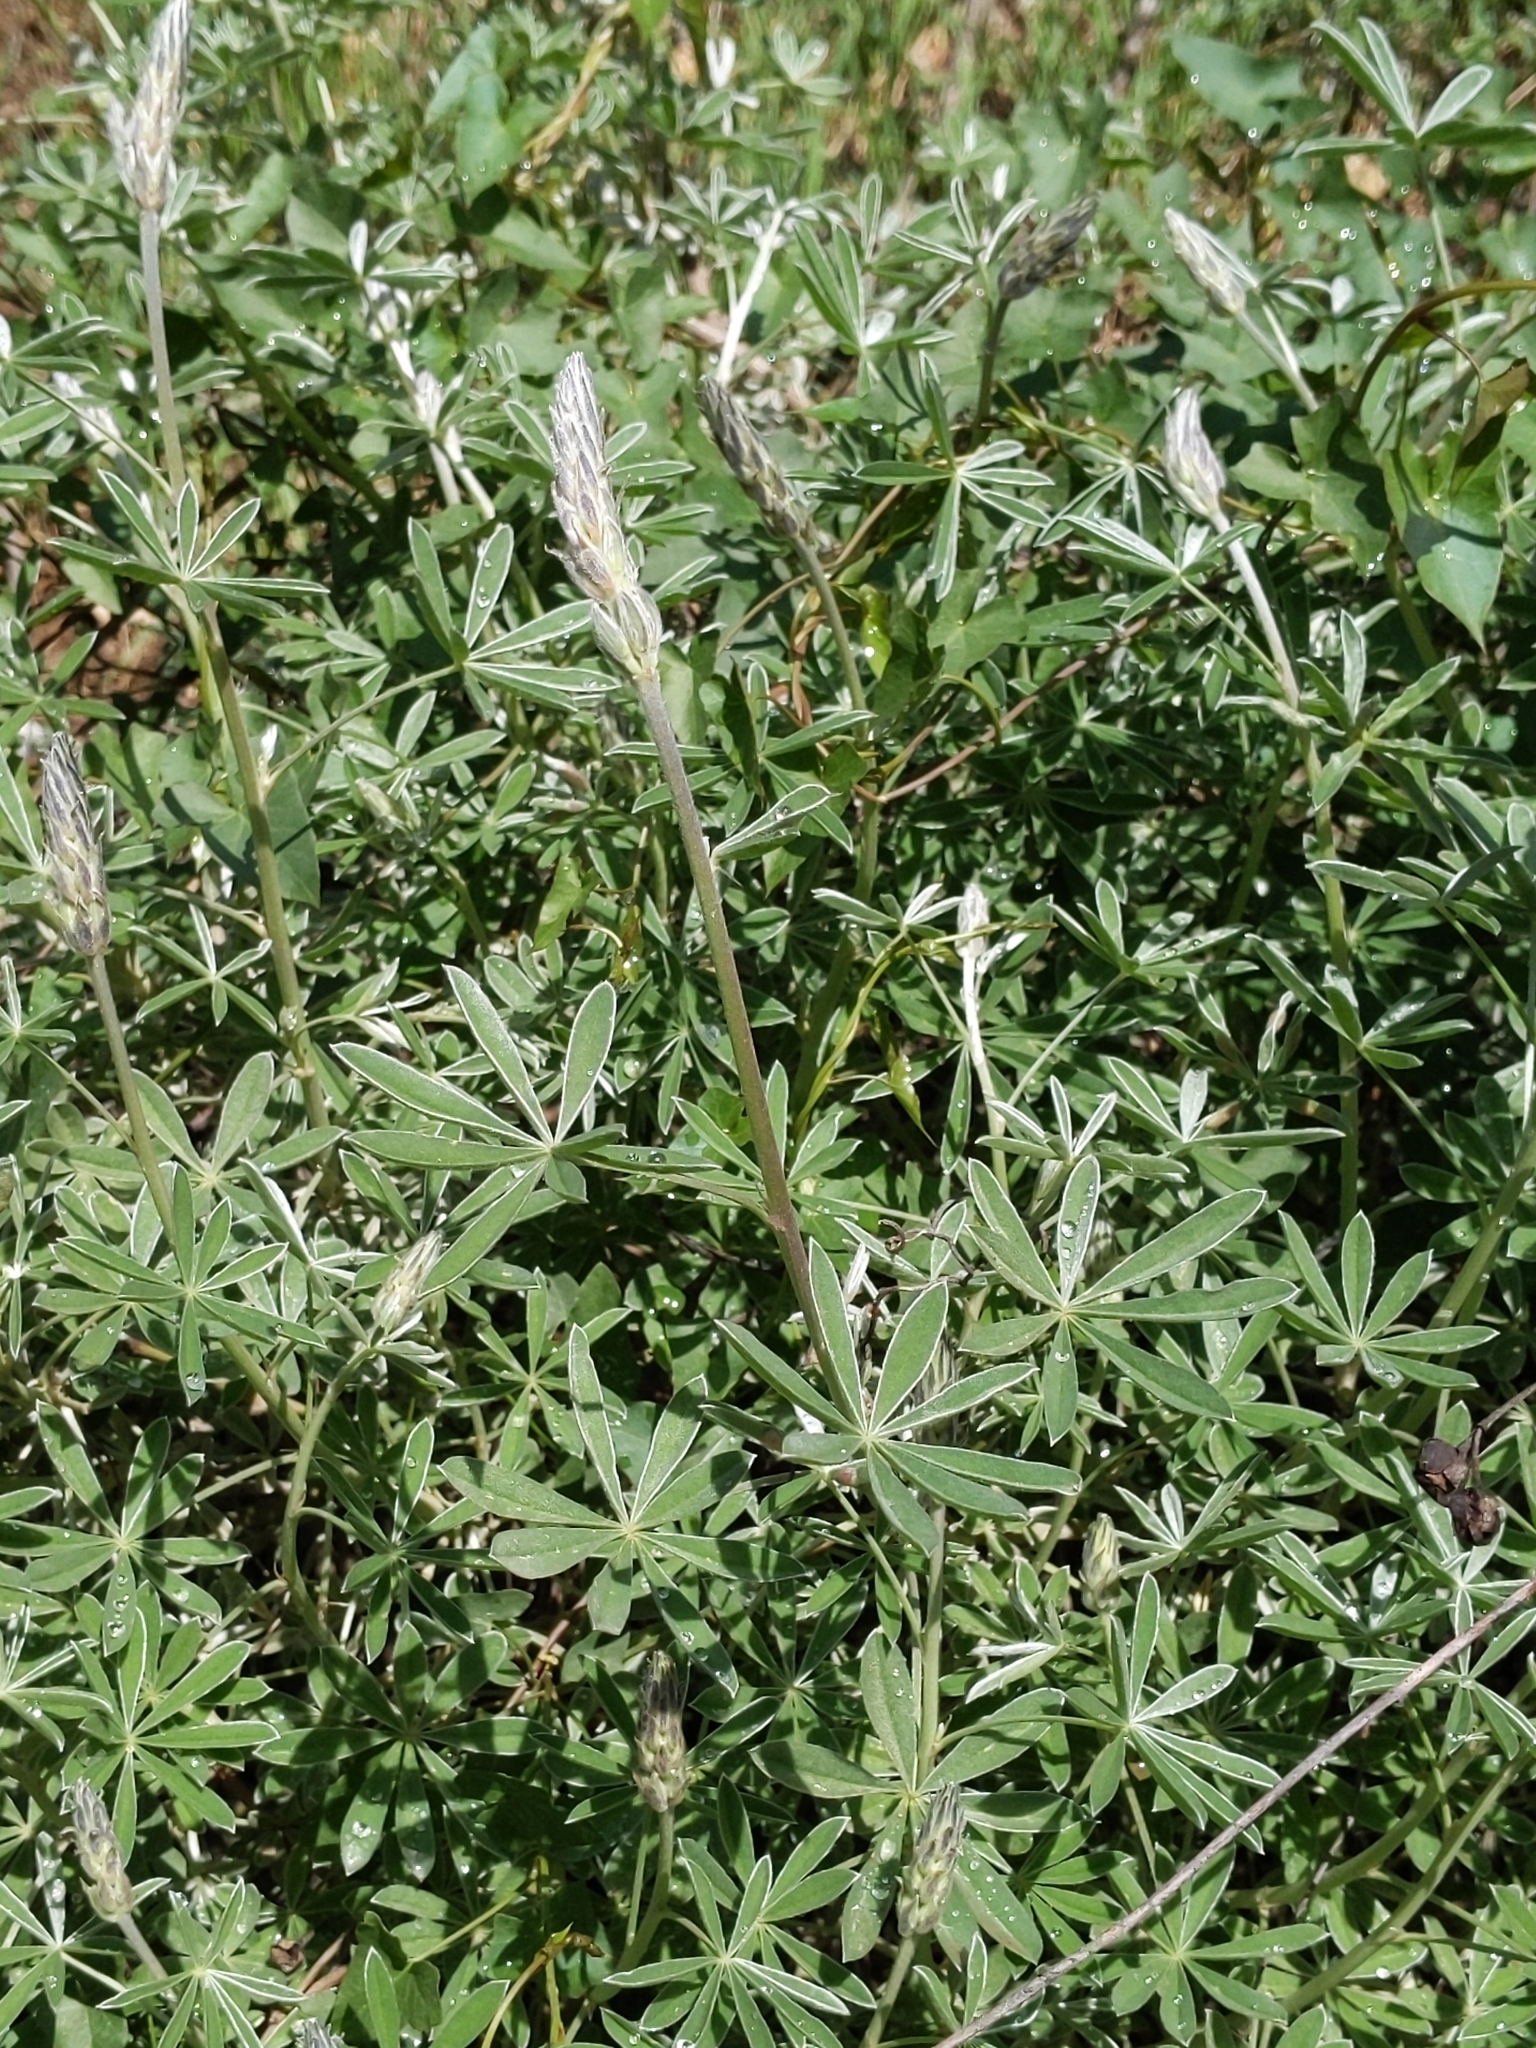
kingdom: Plantae
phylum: Tracheophyta
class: Magnoliopsida
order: Fabales
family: Fabaceae
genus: Lupinus
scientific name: Lupinus albifrons
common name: Foothill lupine
